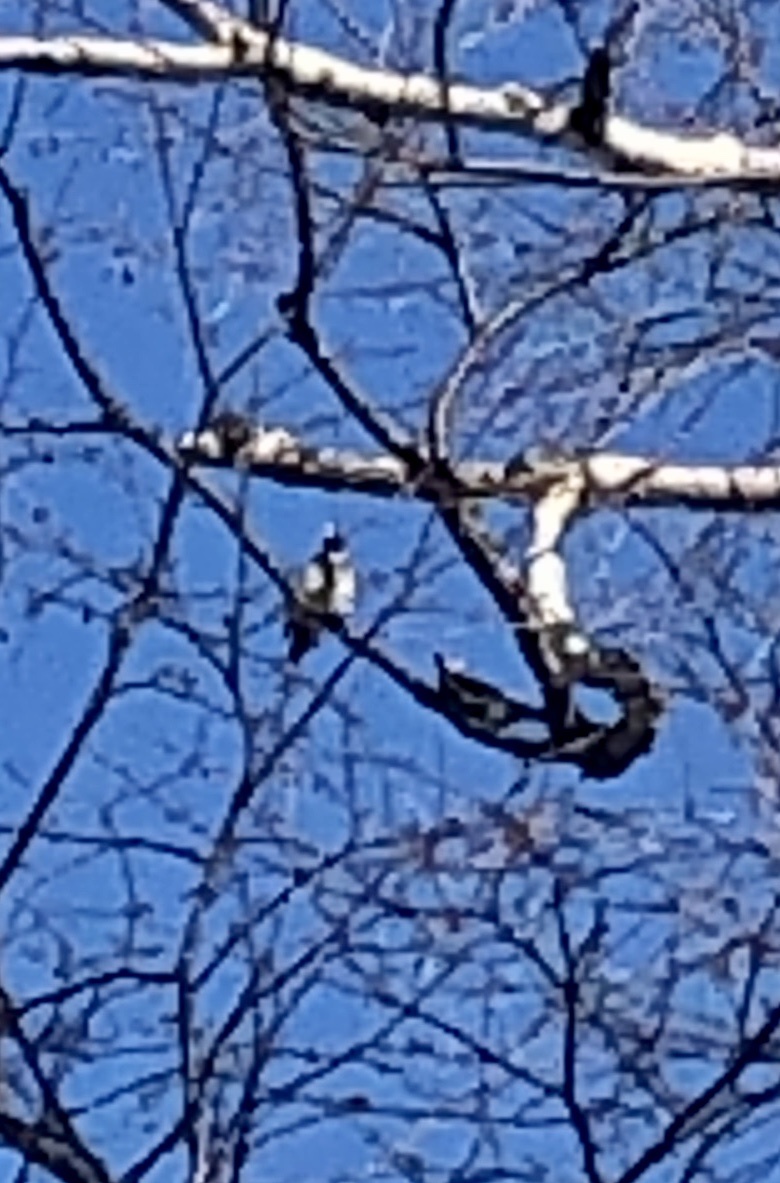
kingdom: Animalia
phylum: Chordata
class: Aves
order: Passeriformes
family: Bombycillidae
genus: Bombycilla
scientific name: Bombycilla garrulus
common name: Bohemian waxwing
